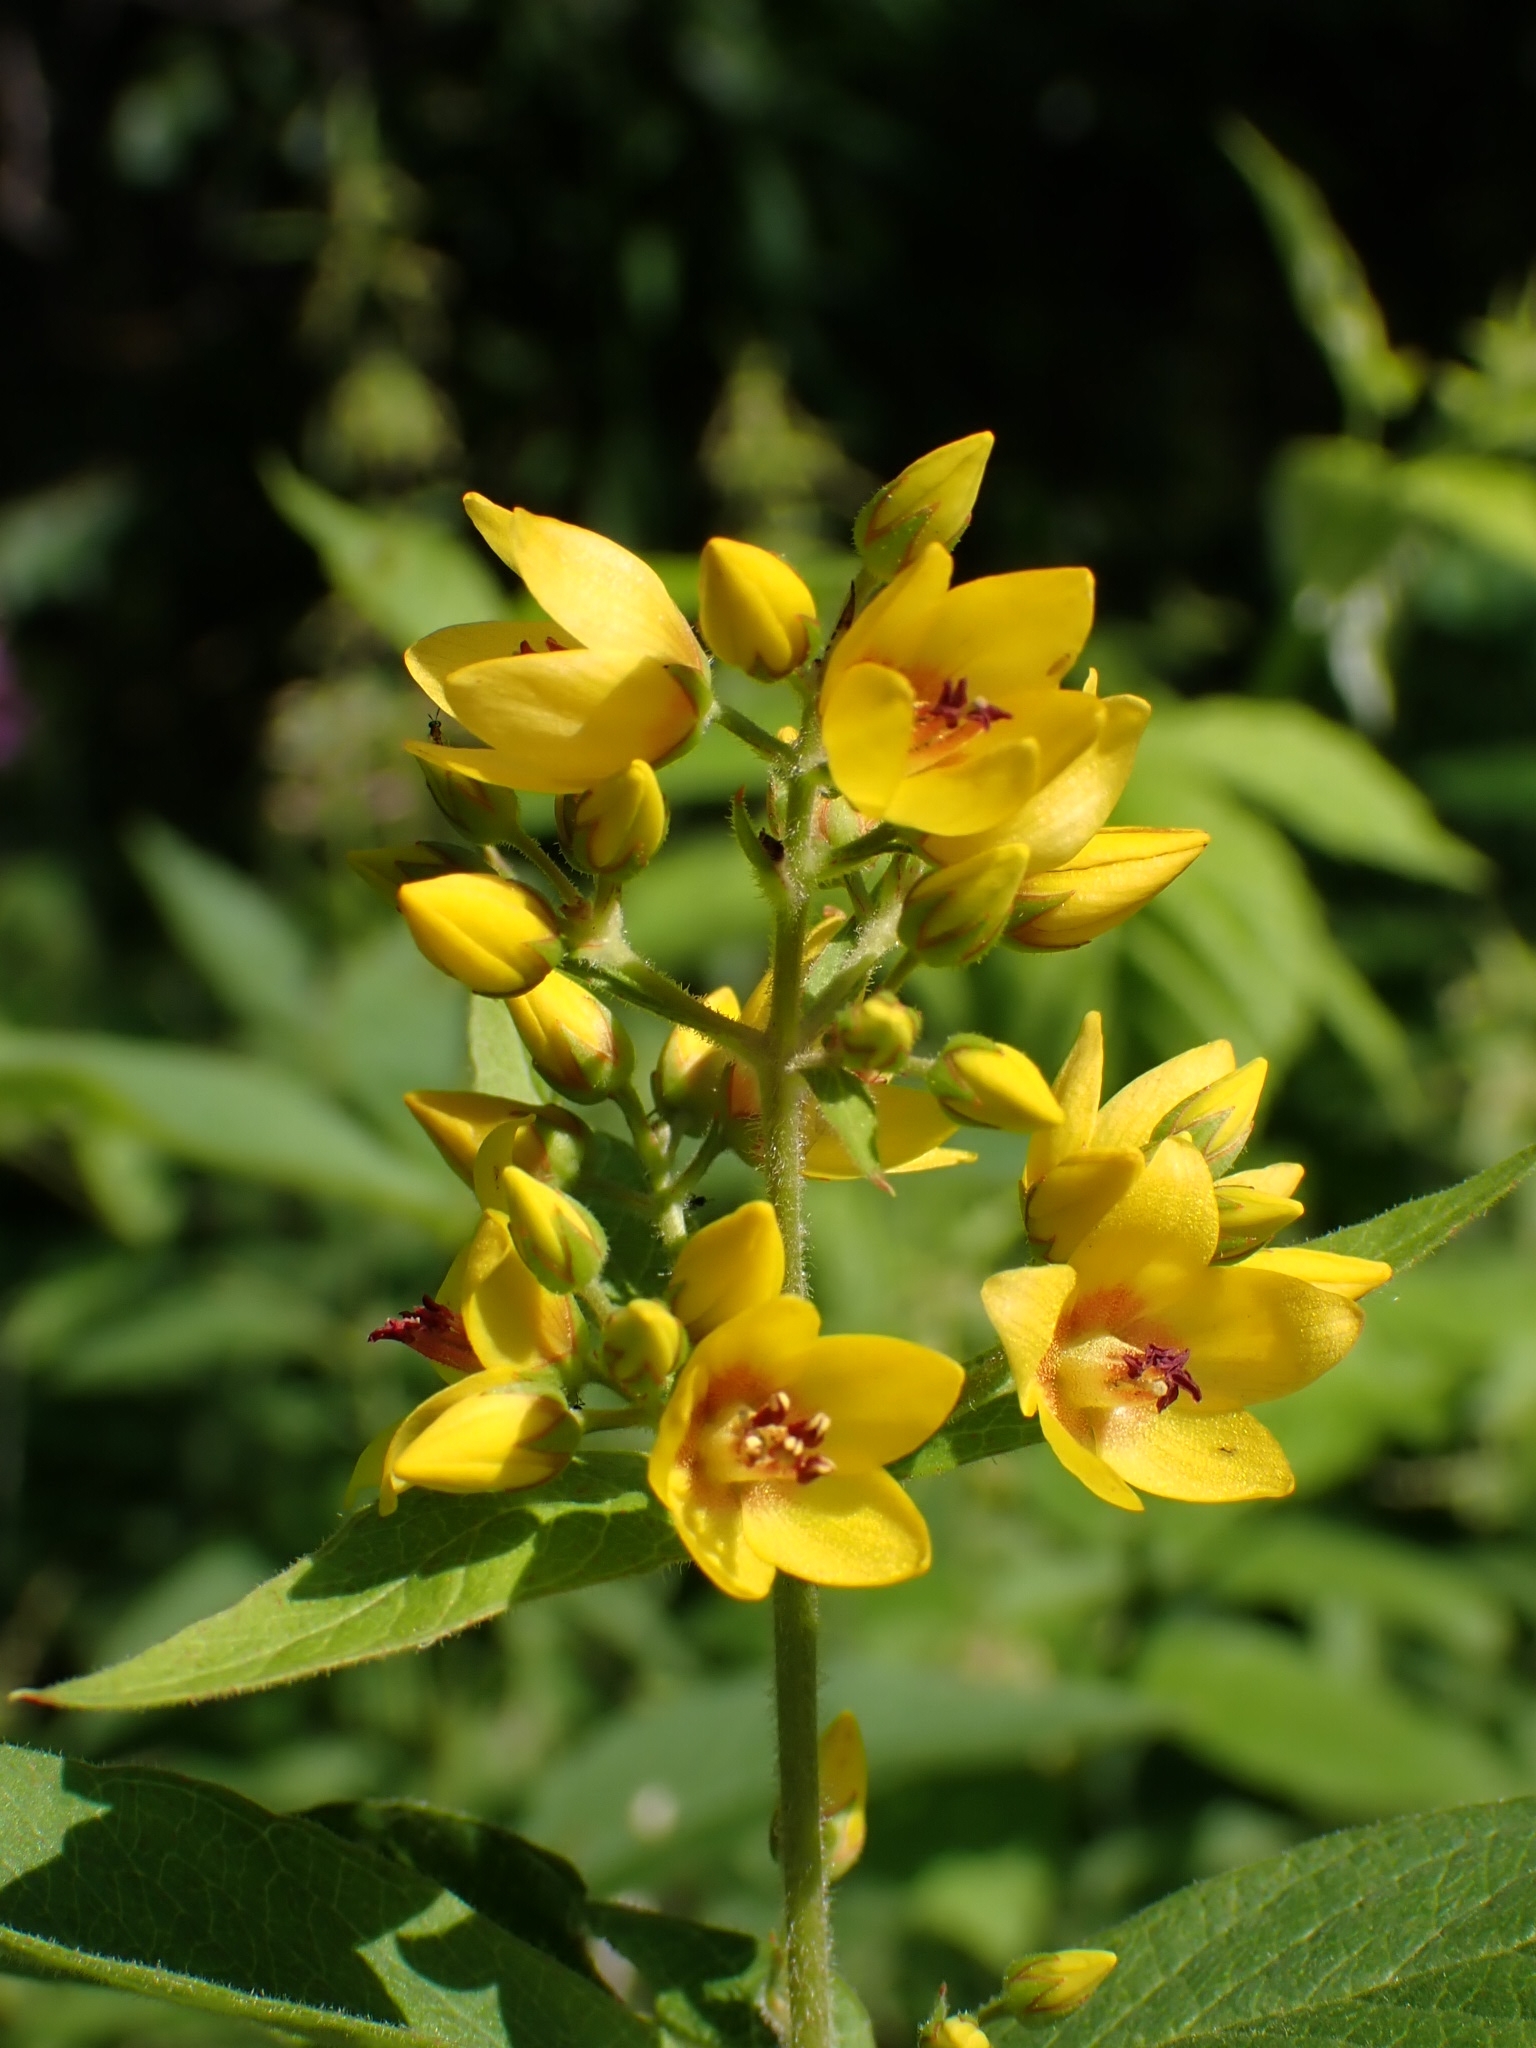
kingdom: Plantae
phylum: Tracheophyta
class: Magnoliopsida
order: Ericales
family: Primulaceae
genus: Lysimachia
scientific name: Lysimachia vulgaris
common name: Yellow loosestrife
